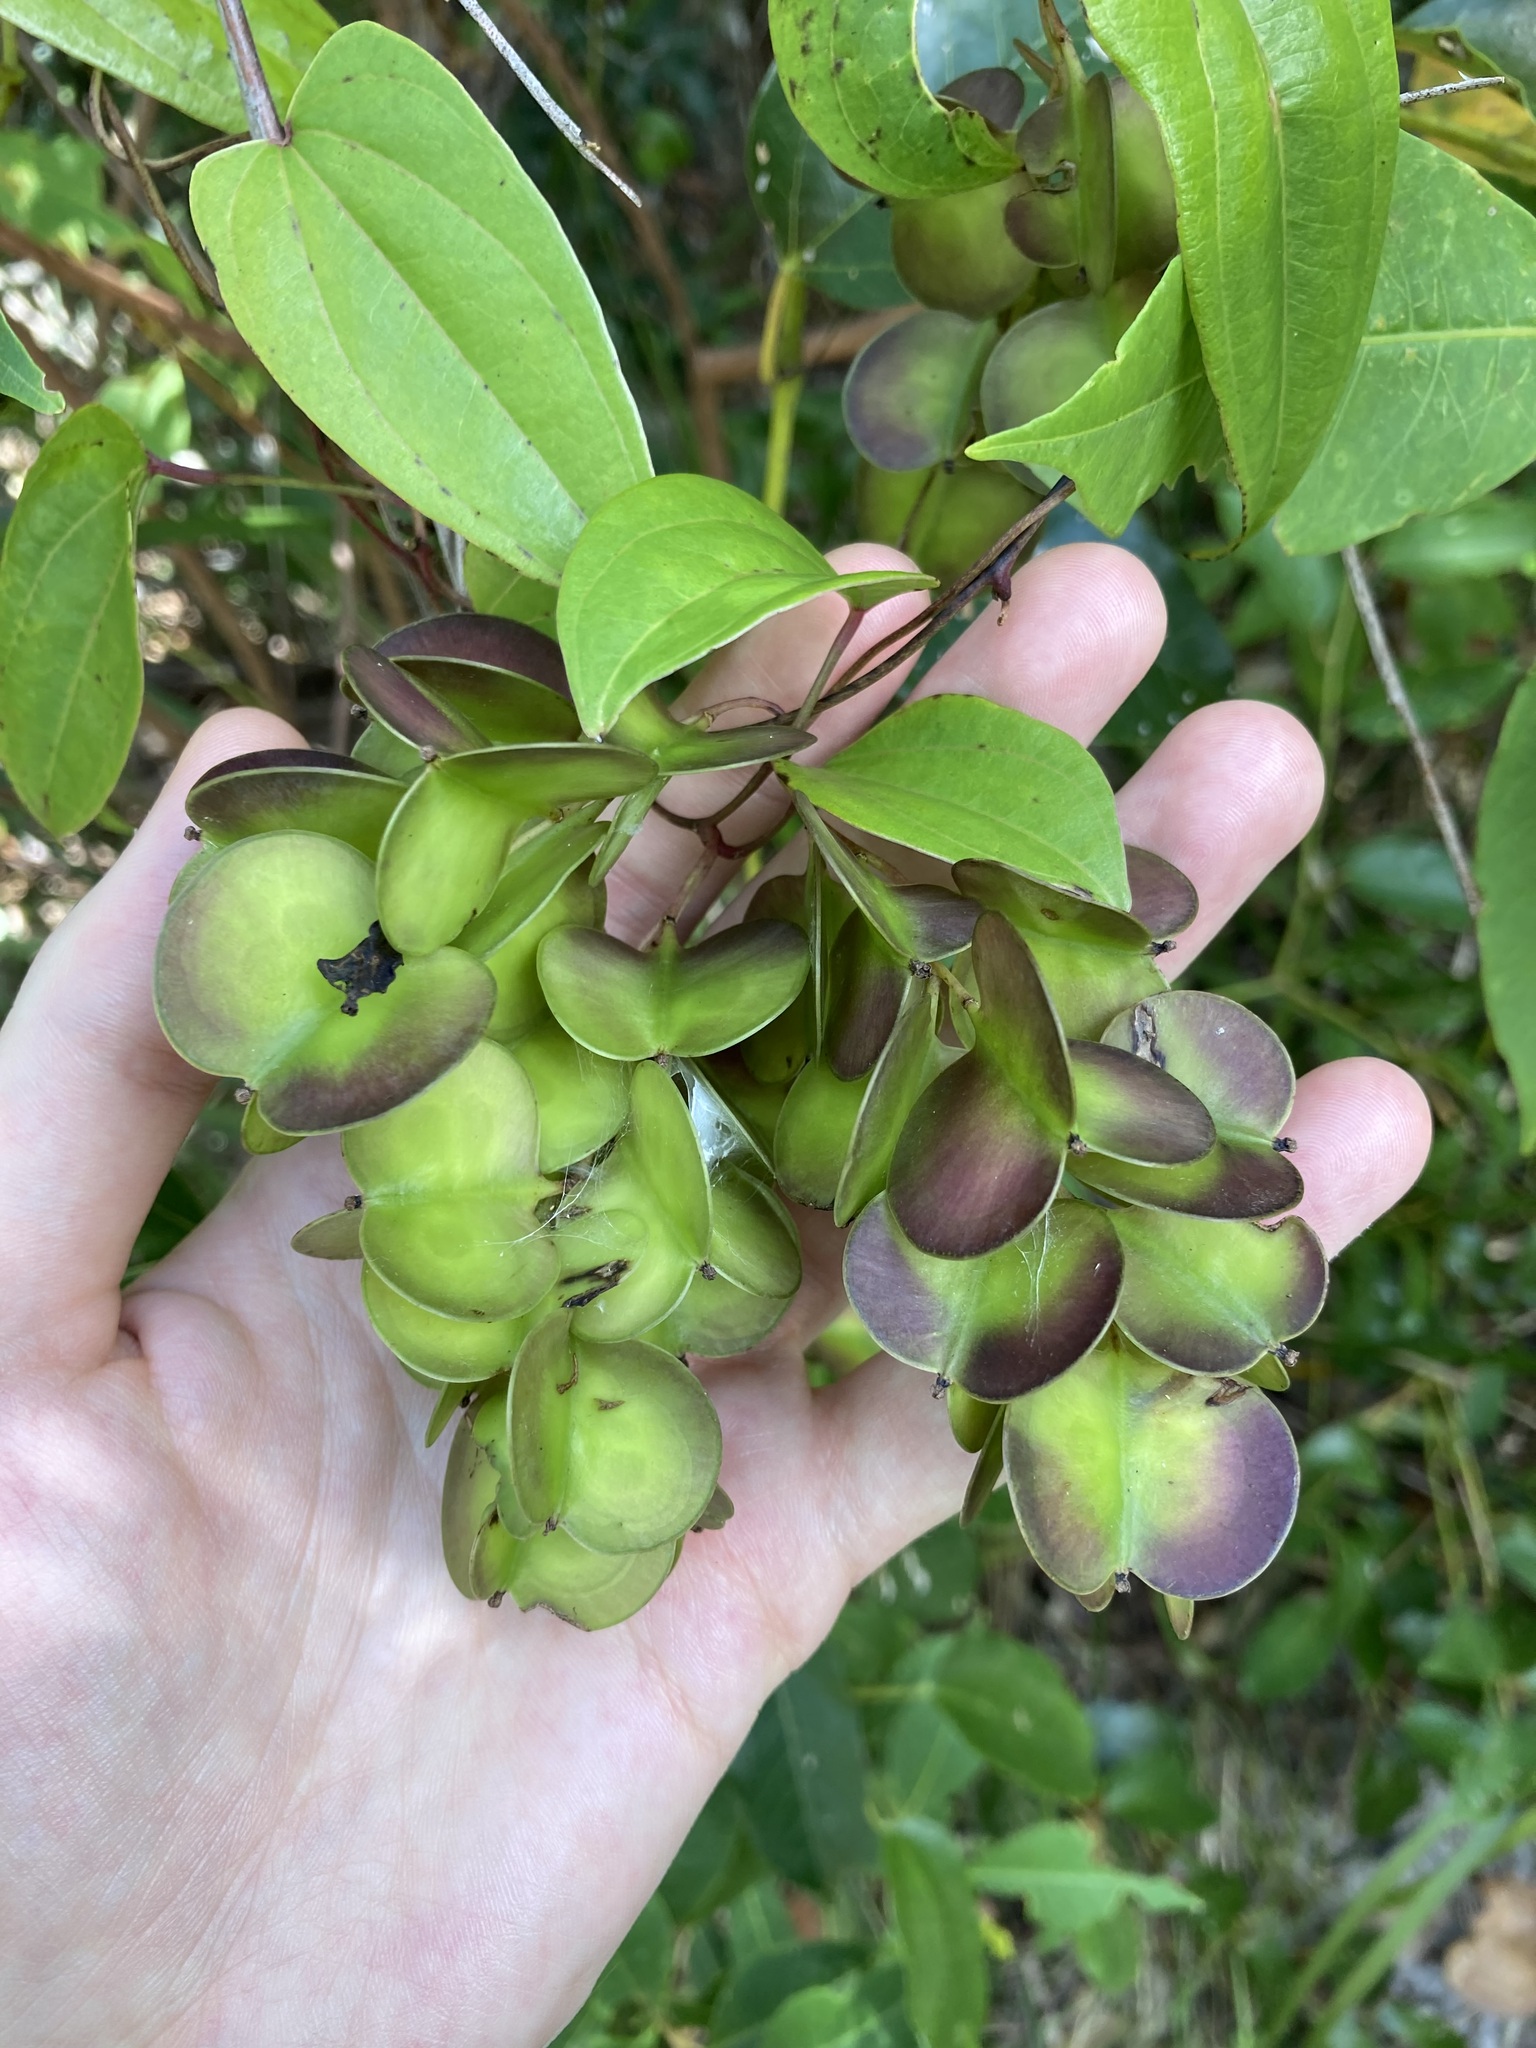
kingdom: Plantae
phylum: Tracheophyta
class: Liliopsida
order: Dioscoreales
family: Dioscoreaceae
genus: Dioscorea
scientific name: Dioscorea transversa
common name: Long yam
